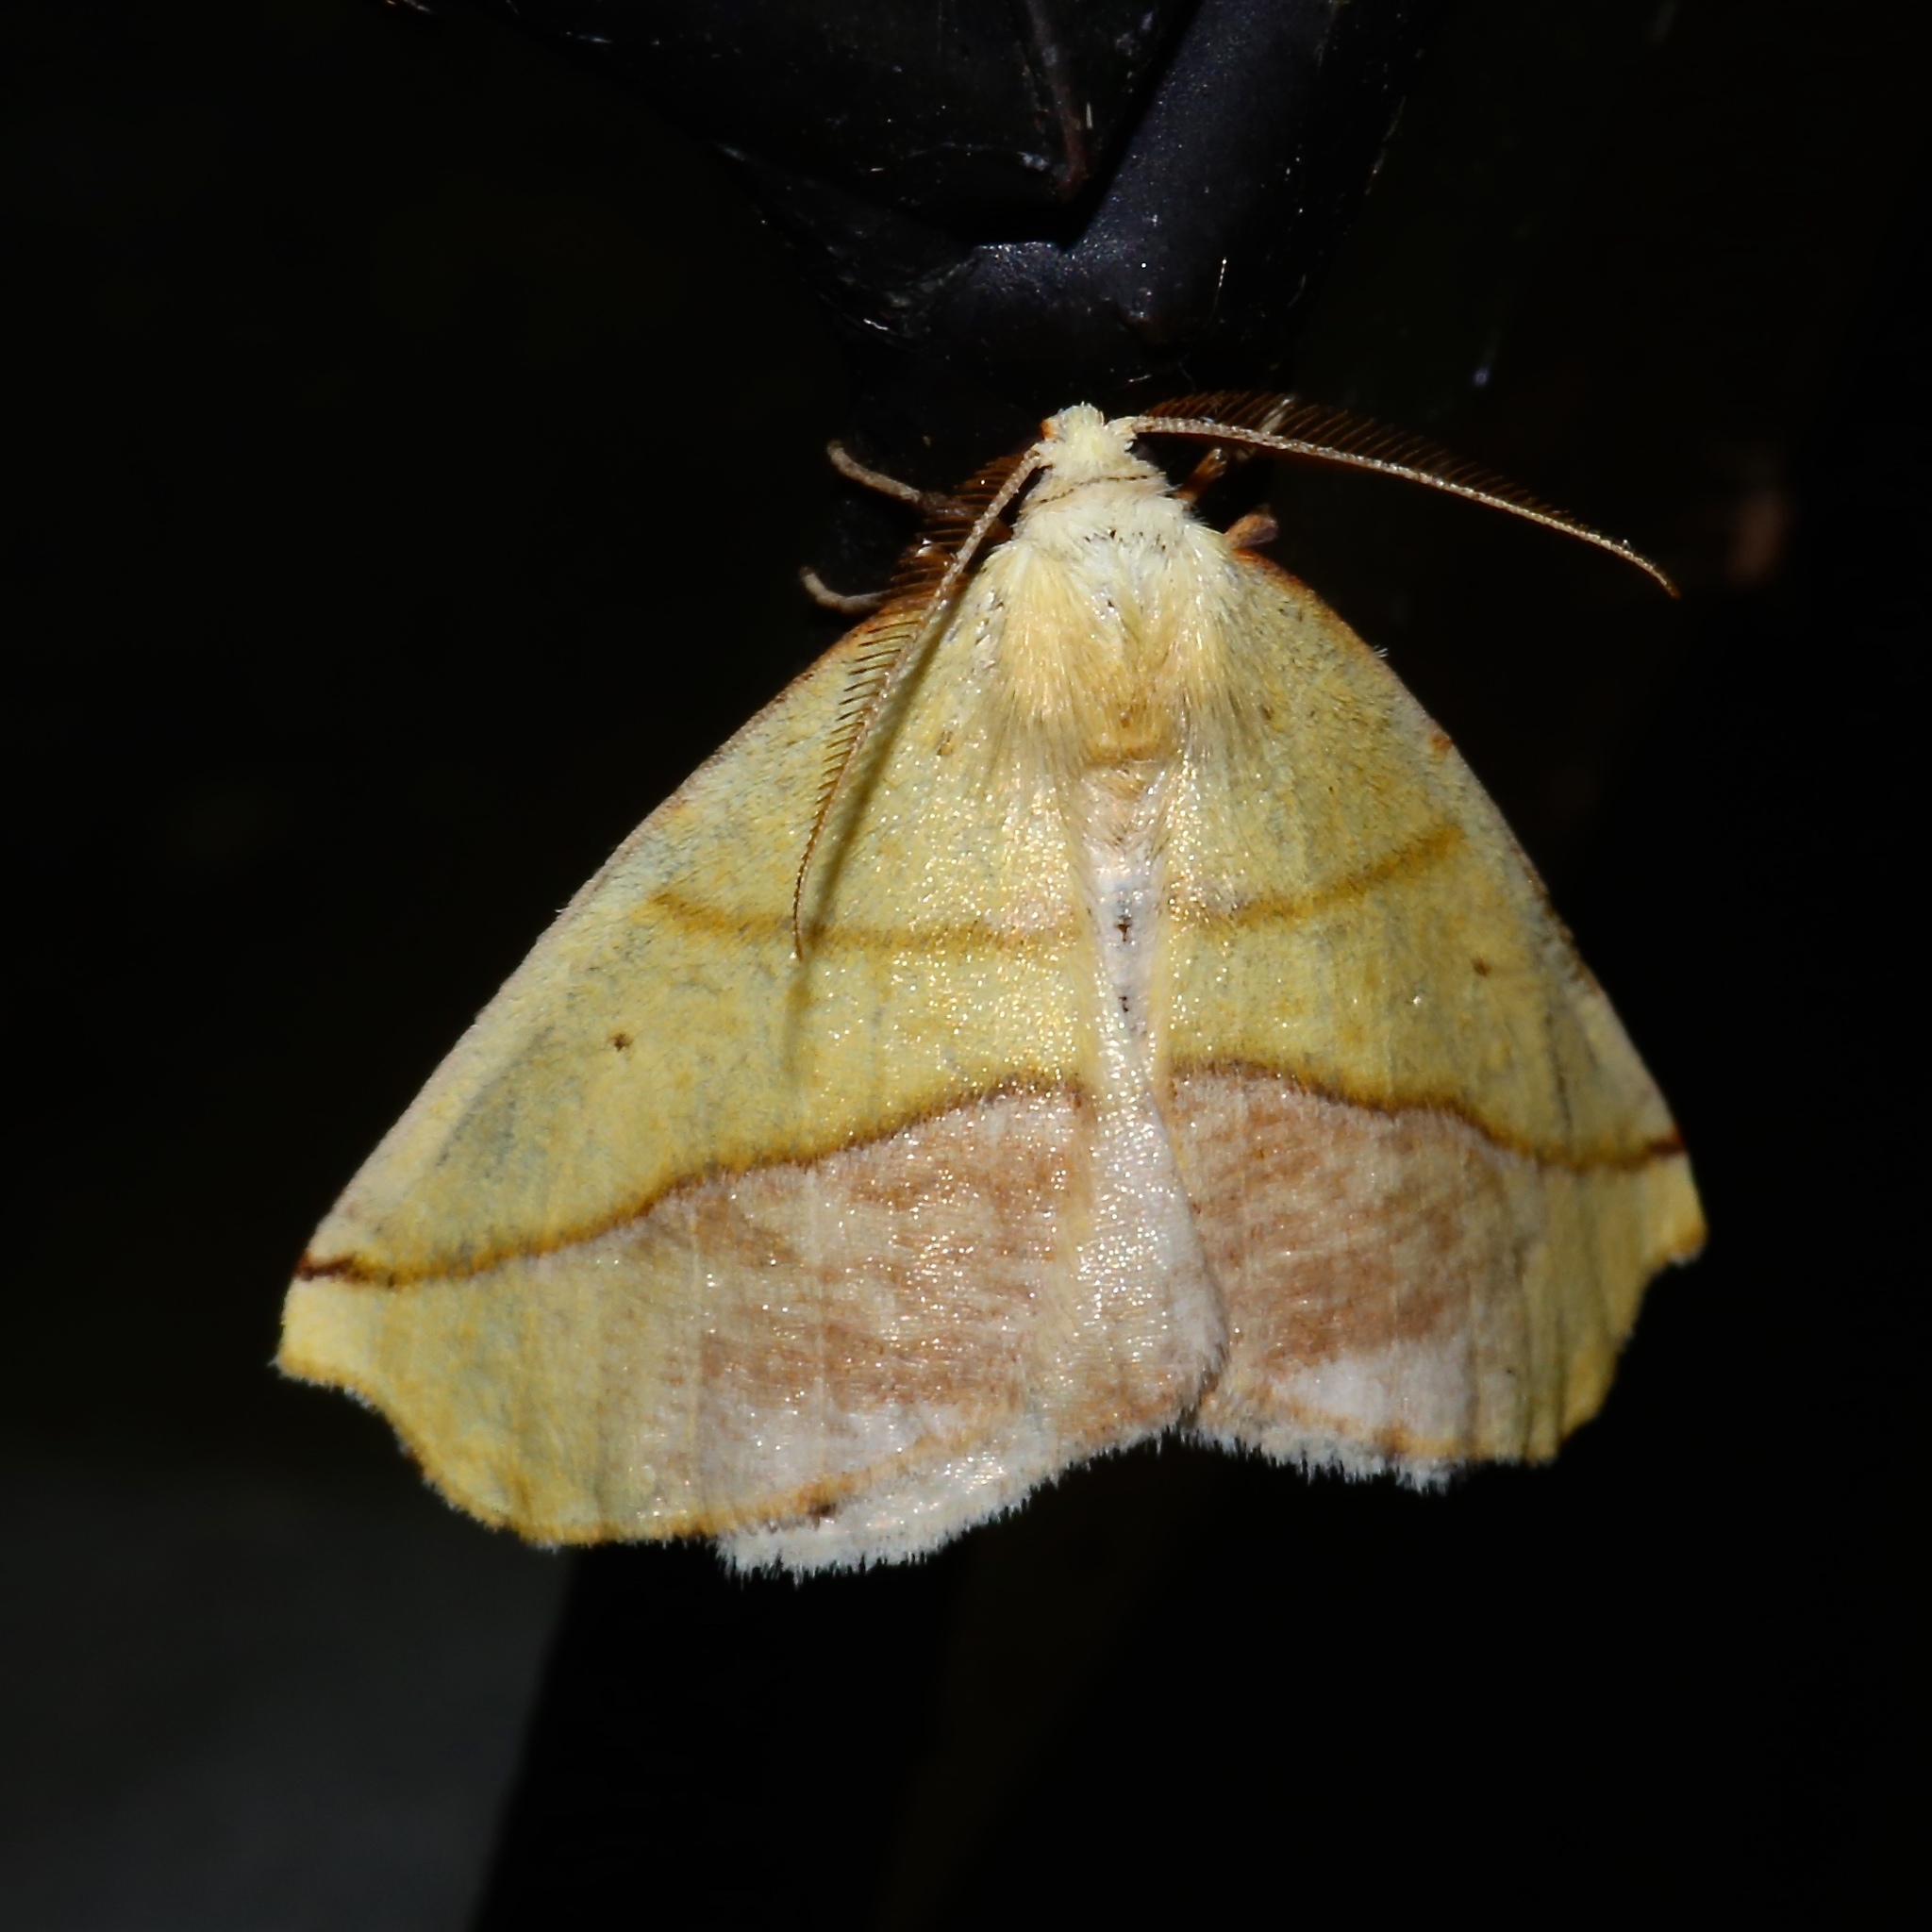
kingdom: Animalia
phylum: Arthropoda
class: Insecta
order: Lepidoptera
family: Geometridae
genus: Sicya
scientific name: Sicya macularia
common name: Sharp-lined yellow
